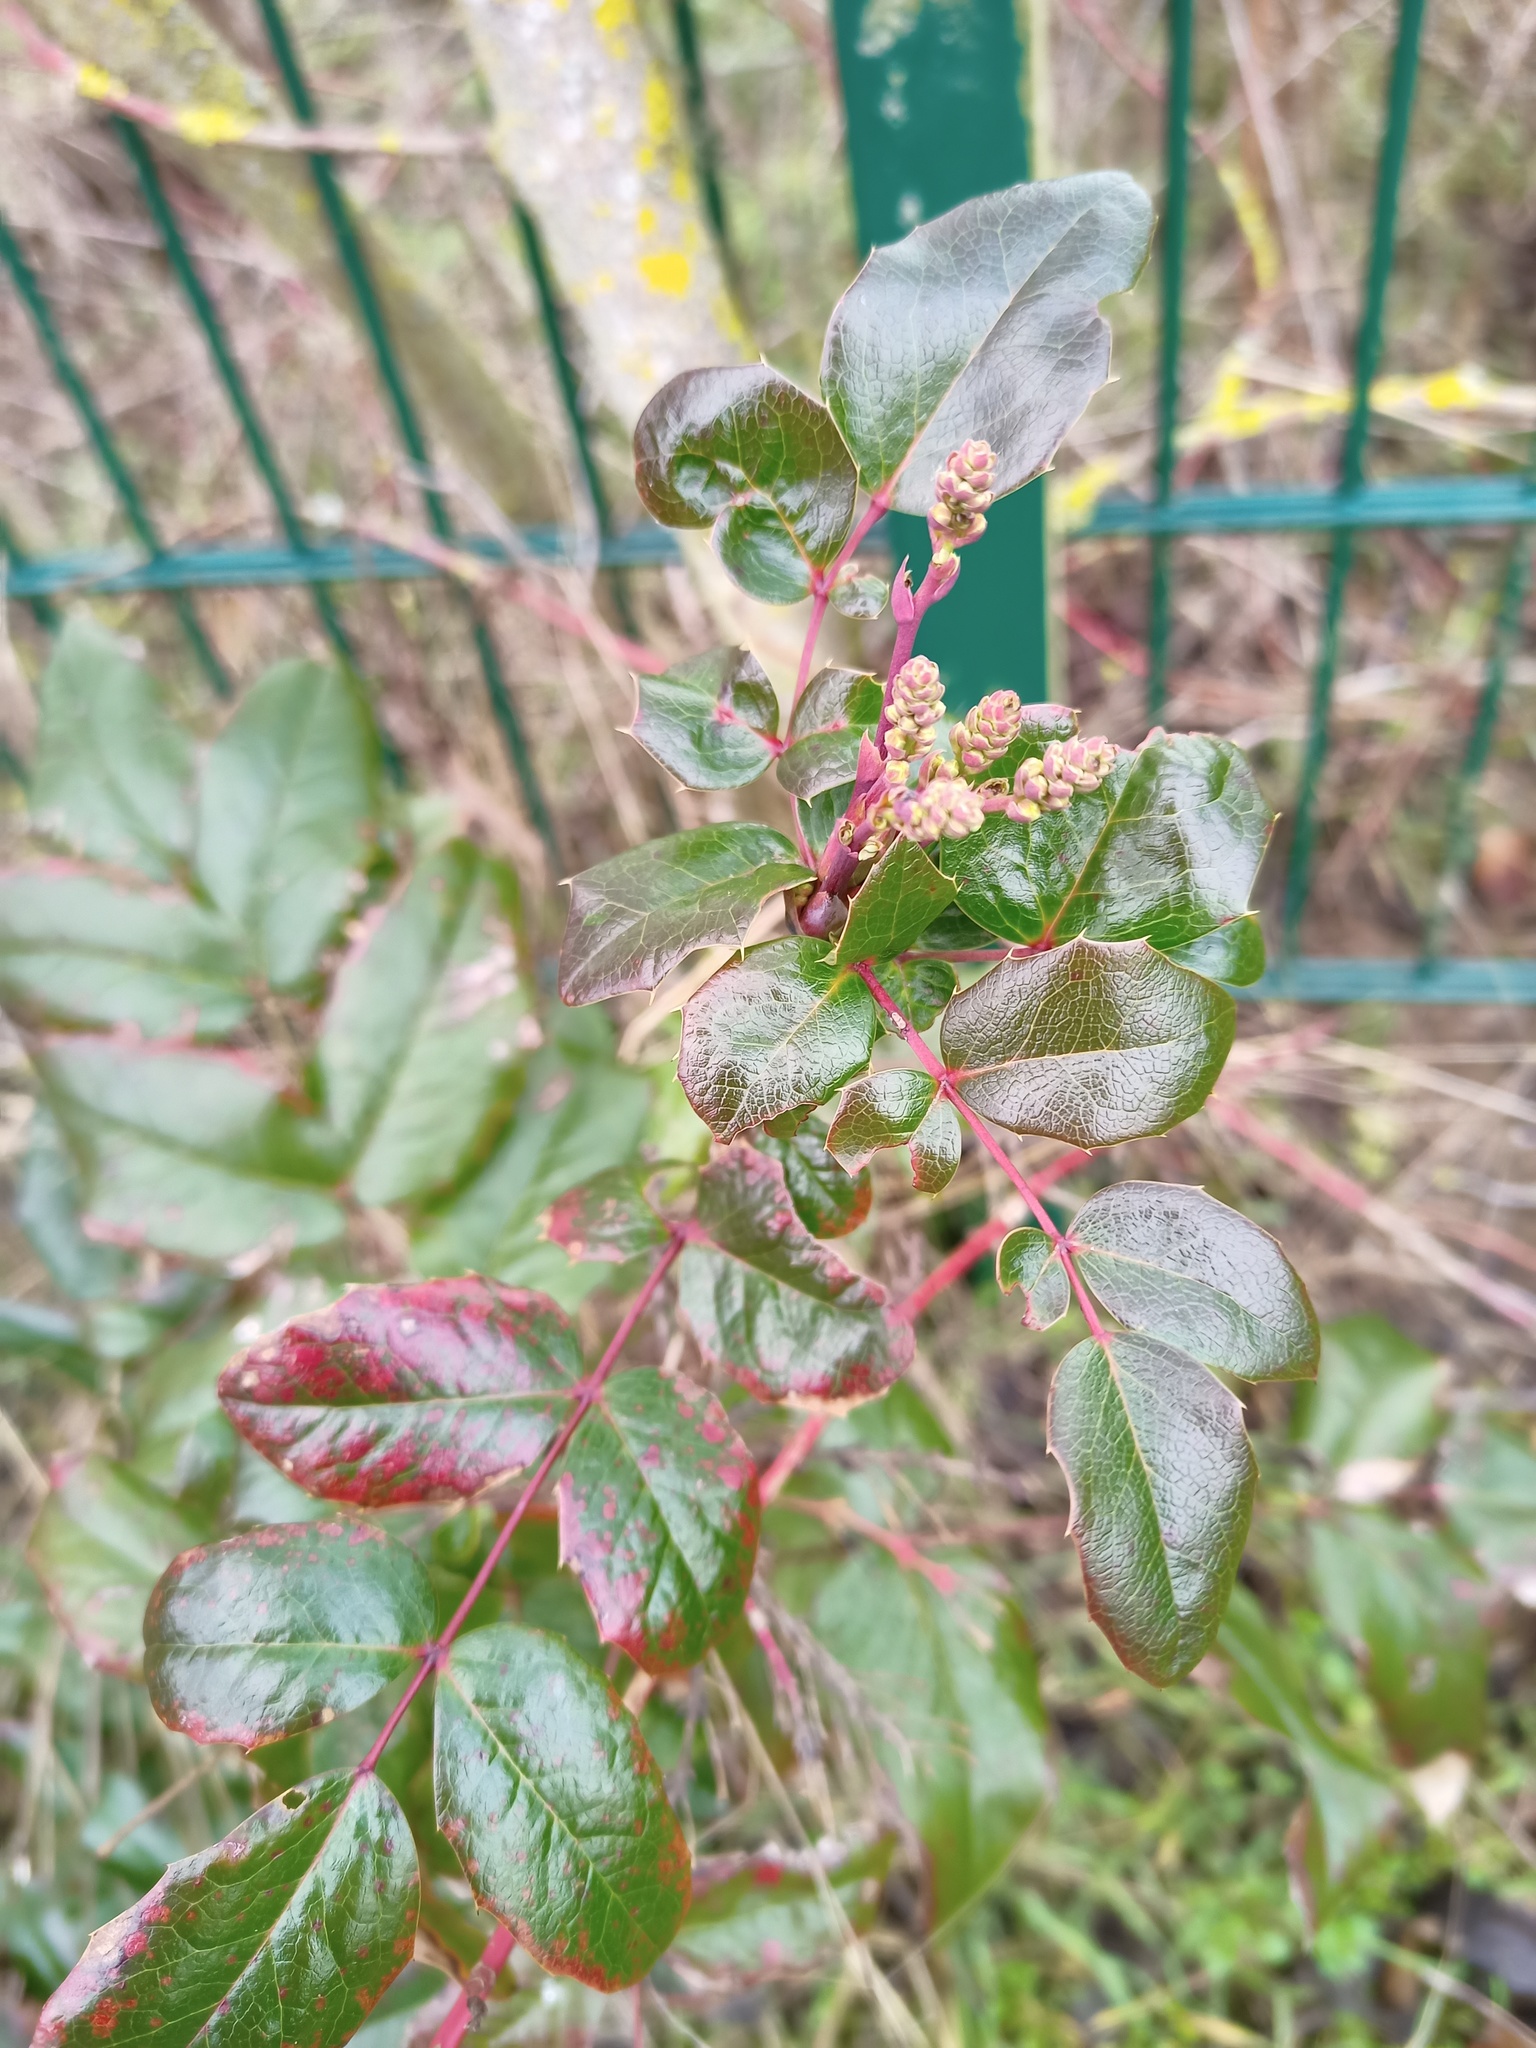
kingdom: Plantae
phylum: Tracheophyta
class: Magnoliopsida
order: Ranunculales
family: Berberidaceae
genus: Mahonia
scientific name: Mahonia aquifolium
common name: Oregon-grape
